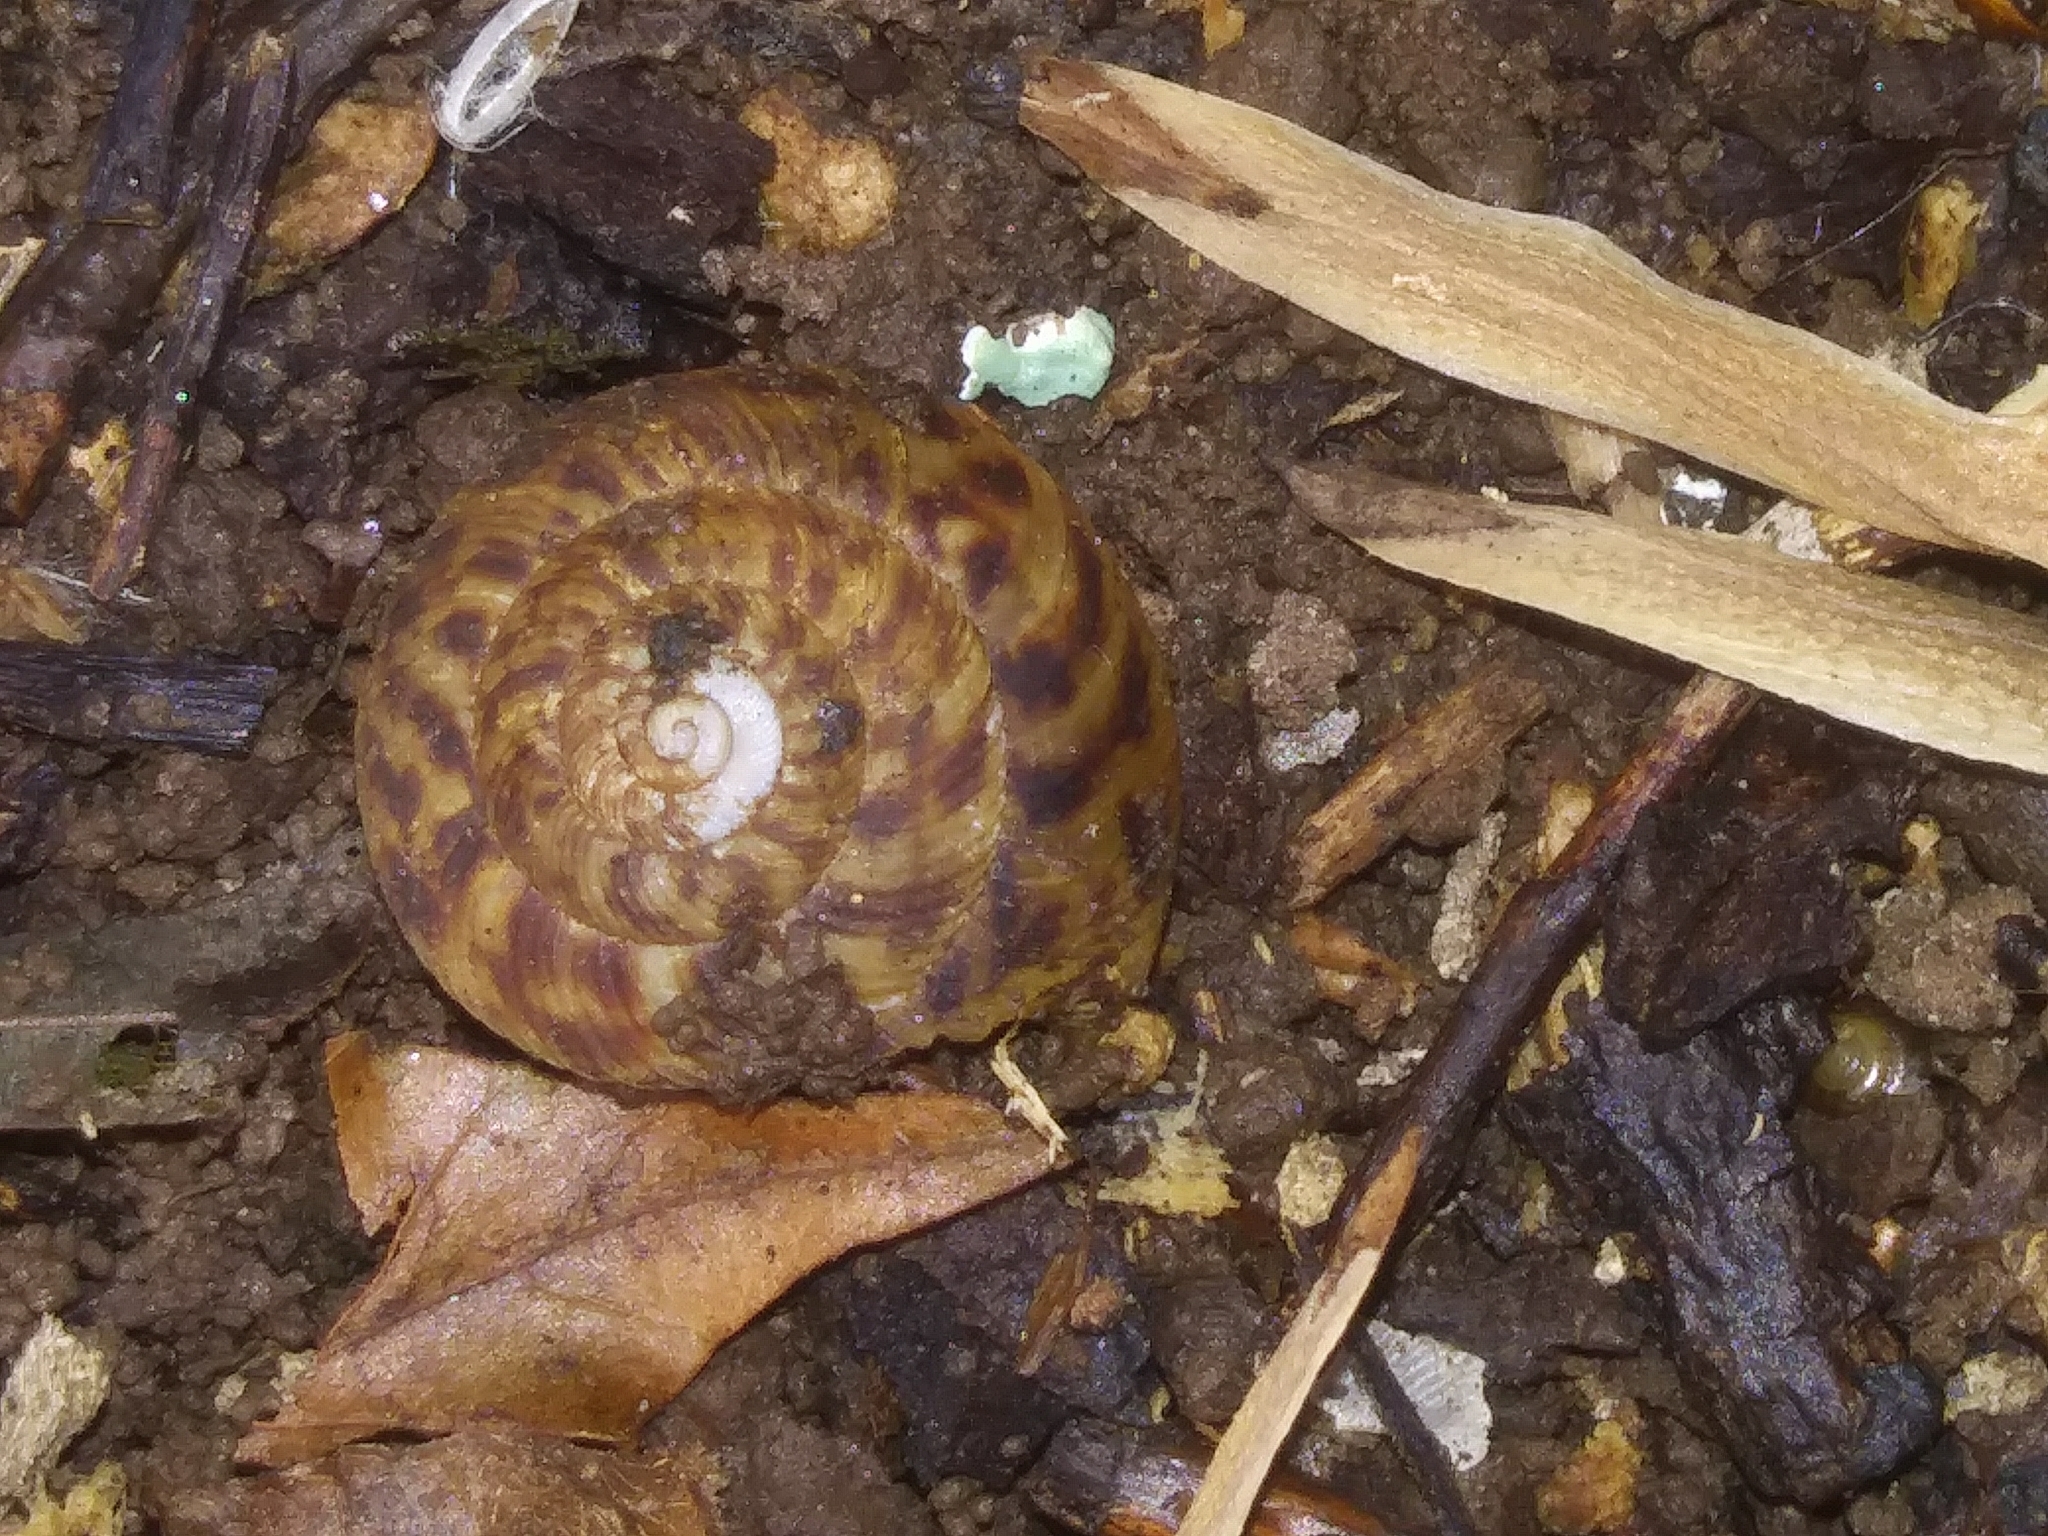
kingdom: Animalia
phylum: Mollusca
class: Gastropoda
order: Stylommatophora
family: Discidae
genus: Anguispira
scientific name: Anguispira alternata
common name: Flamed tigersnail
